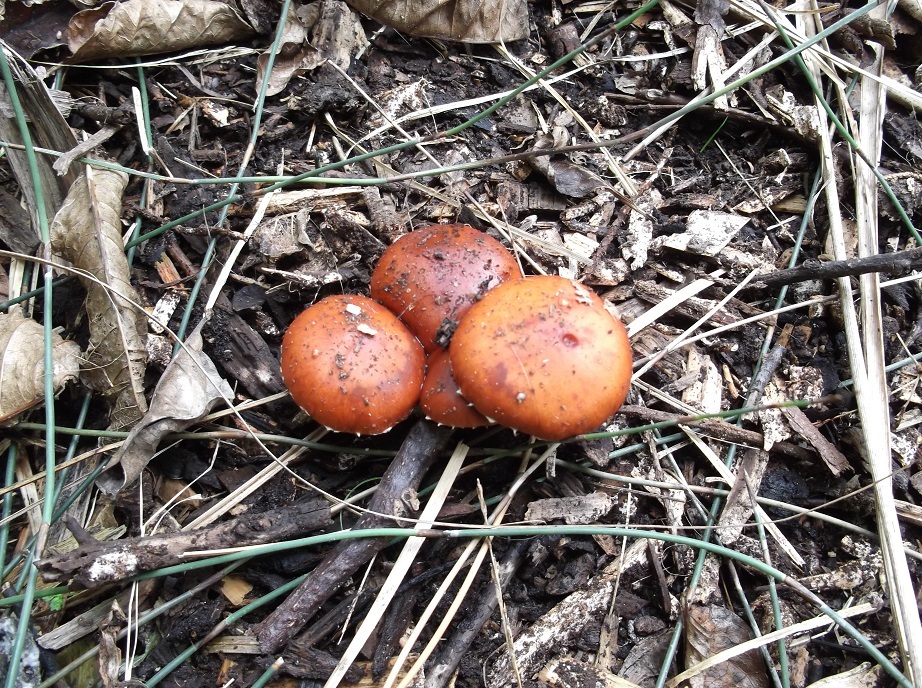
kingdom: Fungi
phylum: Basidiomycota
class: Agaricomycetes
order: Agaricales
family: Strophariaceae
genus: Leratiomyces
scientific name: Leratiomyces ceres
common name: Redlead roundhead
